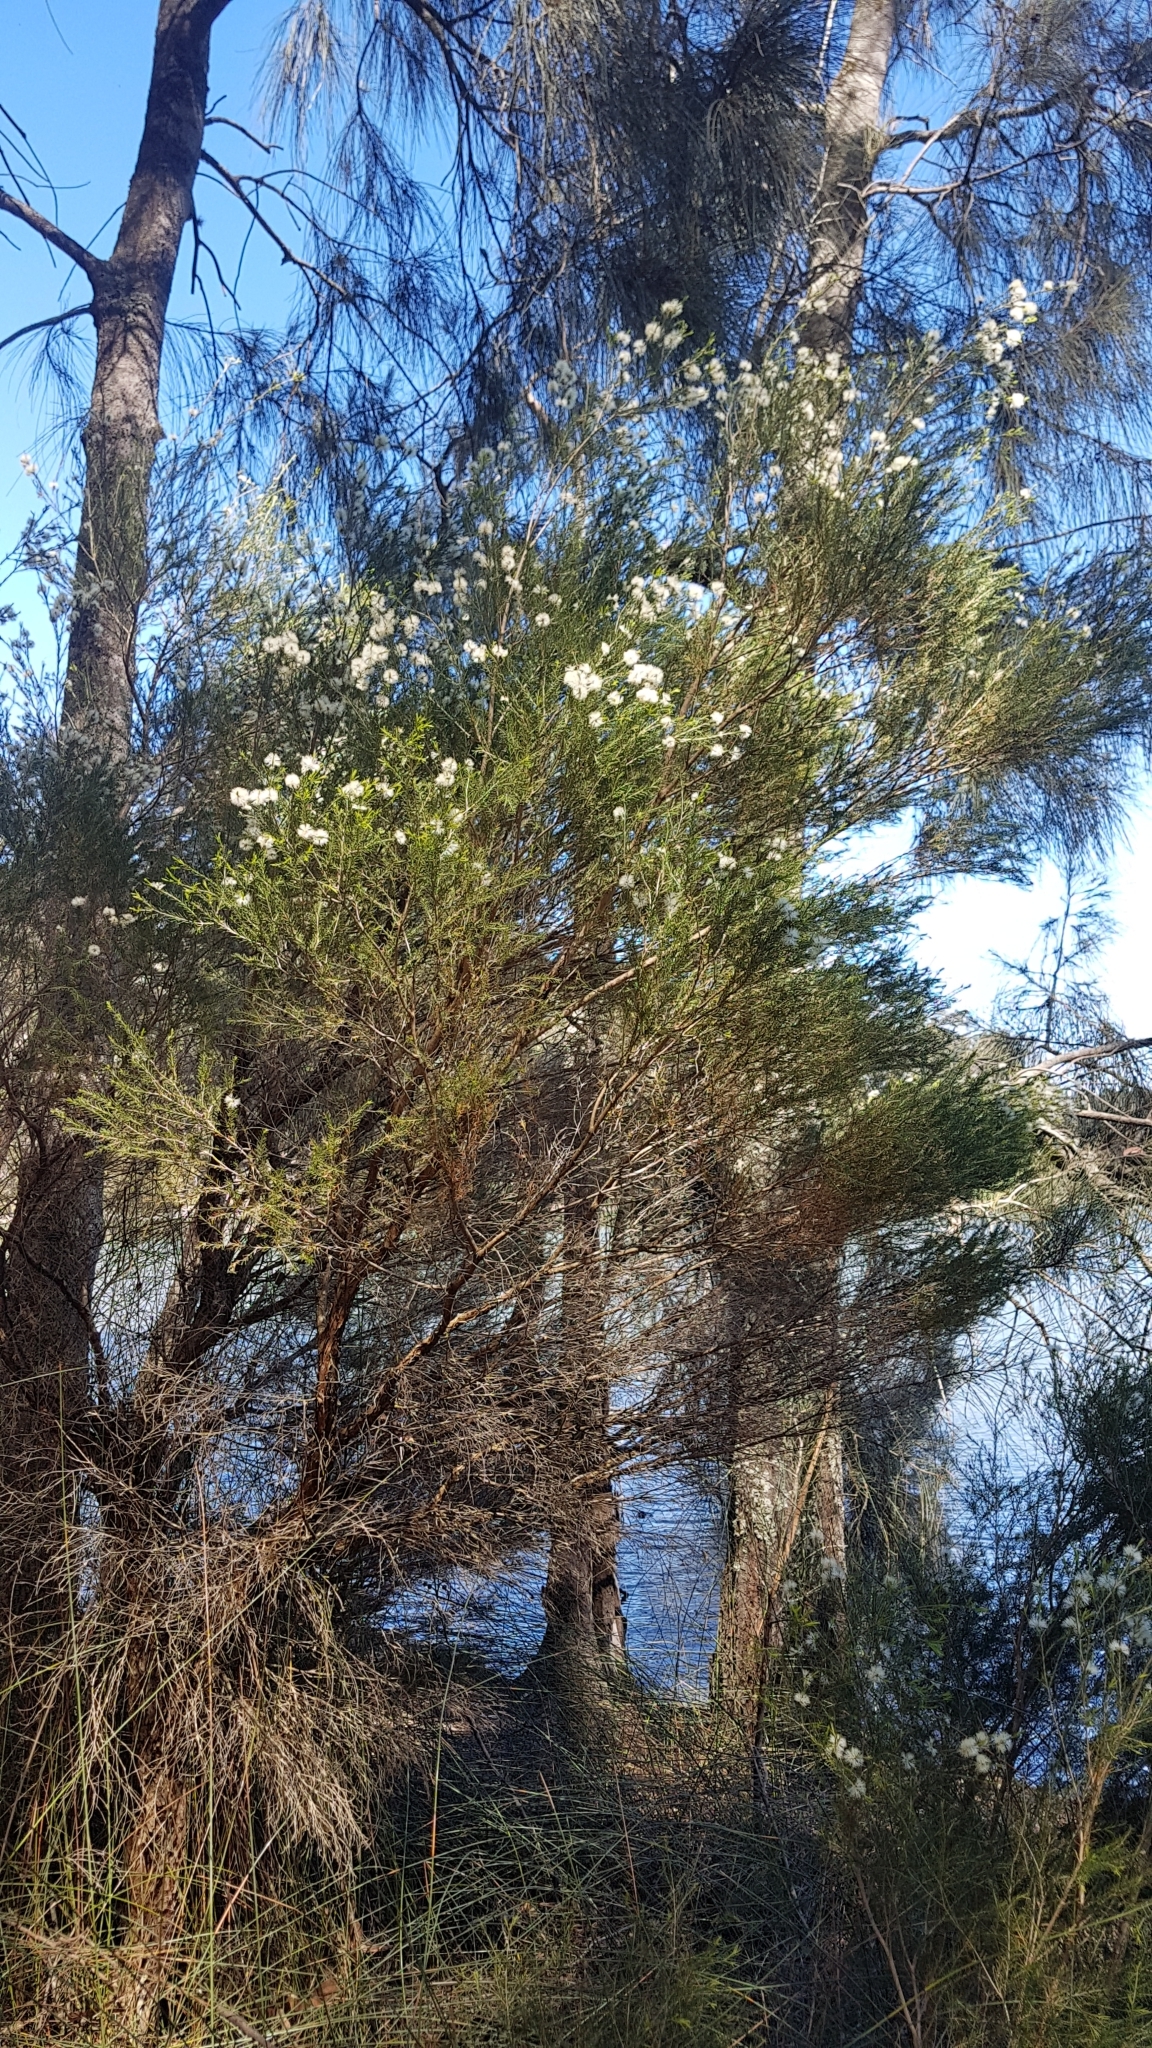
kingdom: Plantae
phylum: Tracheophyta
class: Magnoliopsida
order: Myrtales
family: Myrtaceae
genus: Melaleuca
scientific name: Melaleuca armillaris
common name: Bracelet honey myrtle
